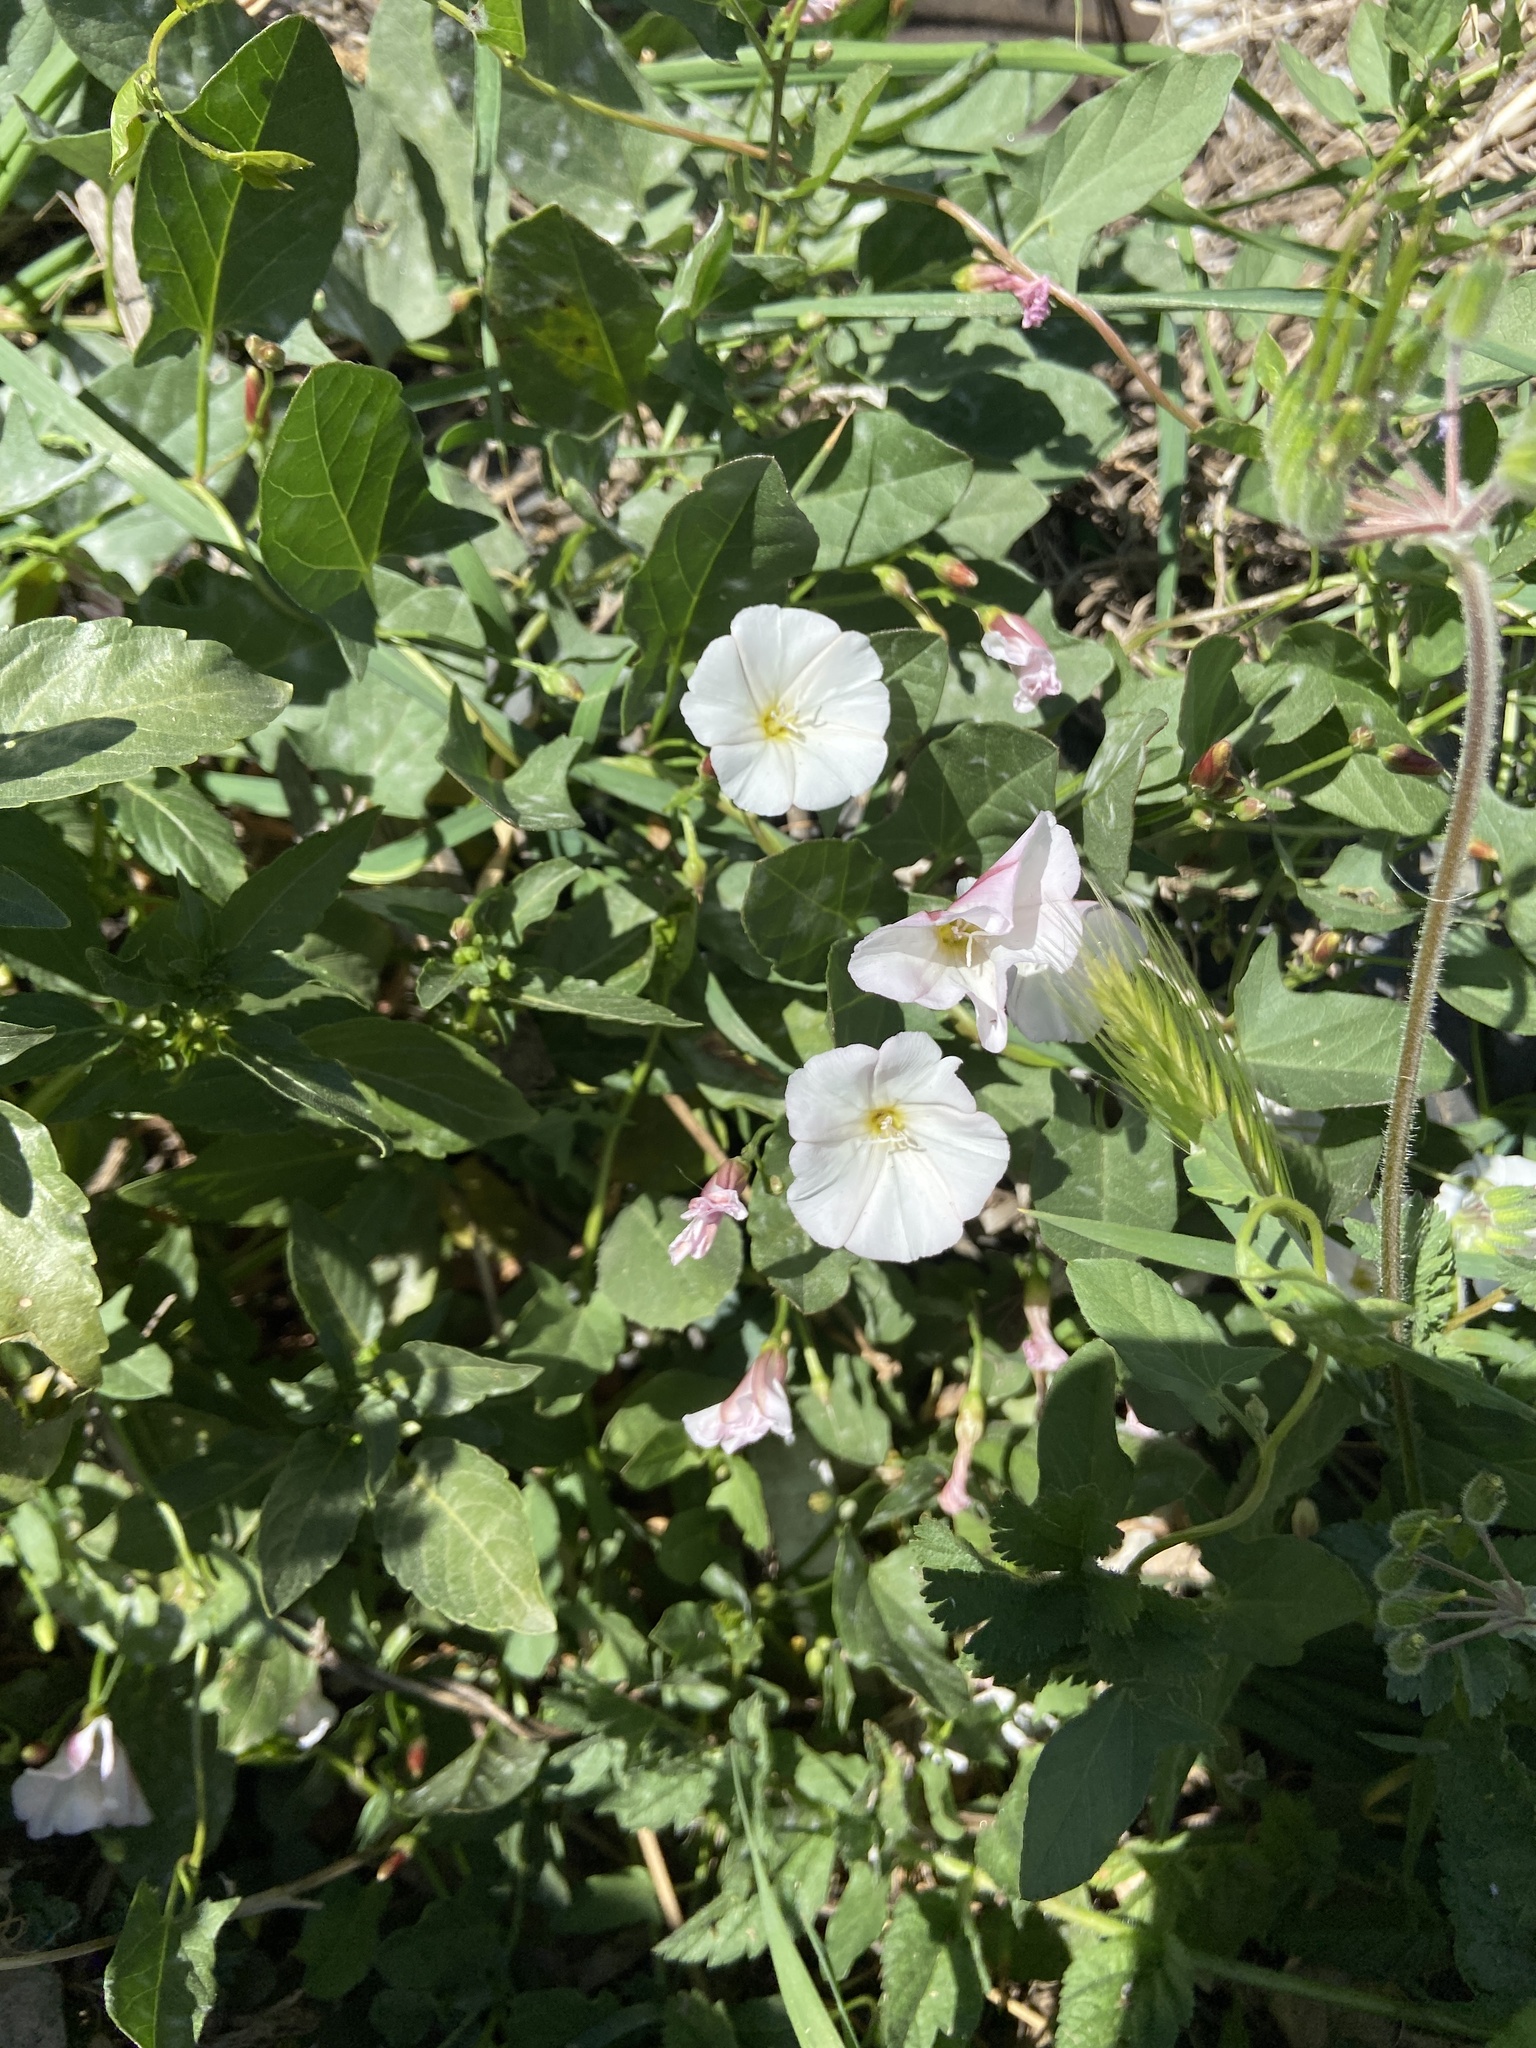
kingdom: Plantae
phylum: Tracheophyta
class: Magnoliopsida
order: Solanales
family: Convolvulaceae
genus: Convolvulus
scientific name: Convolvulus arvensis
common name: Field bindweed
